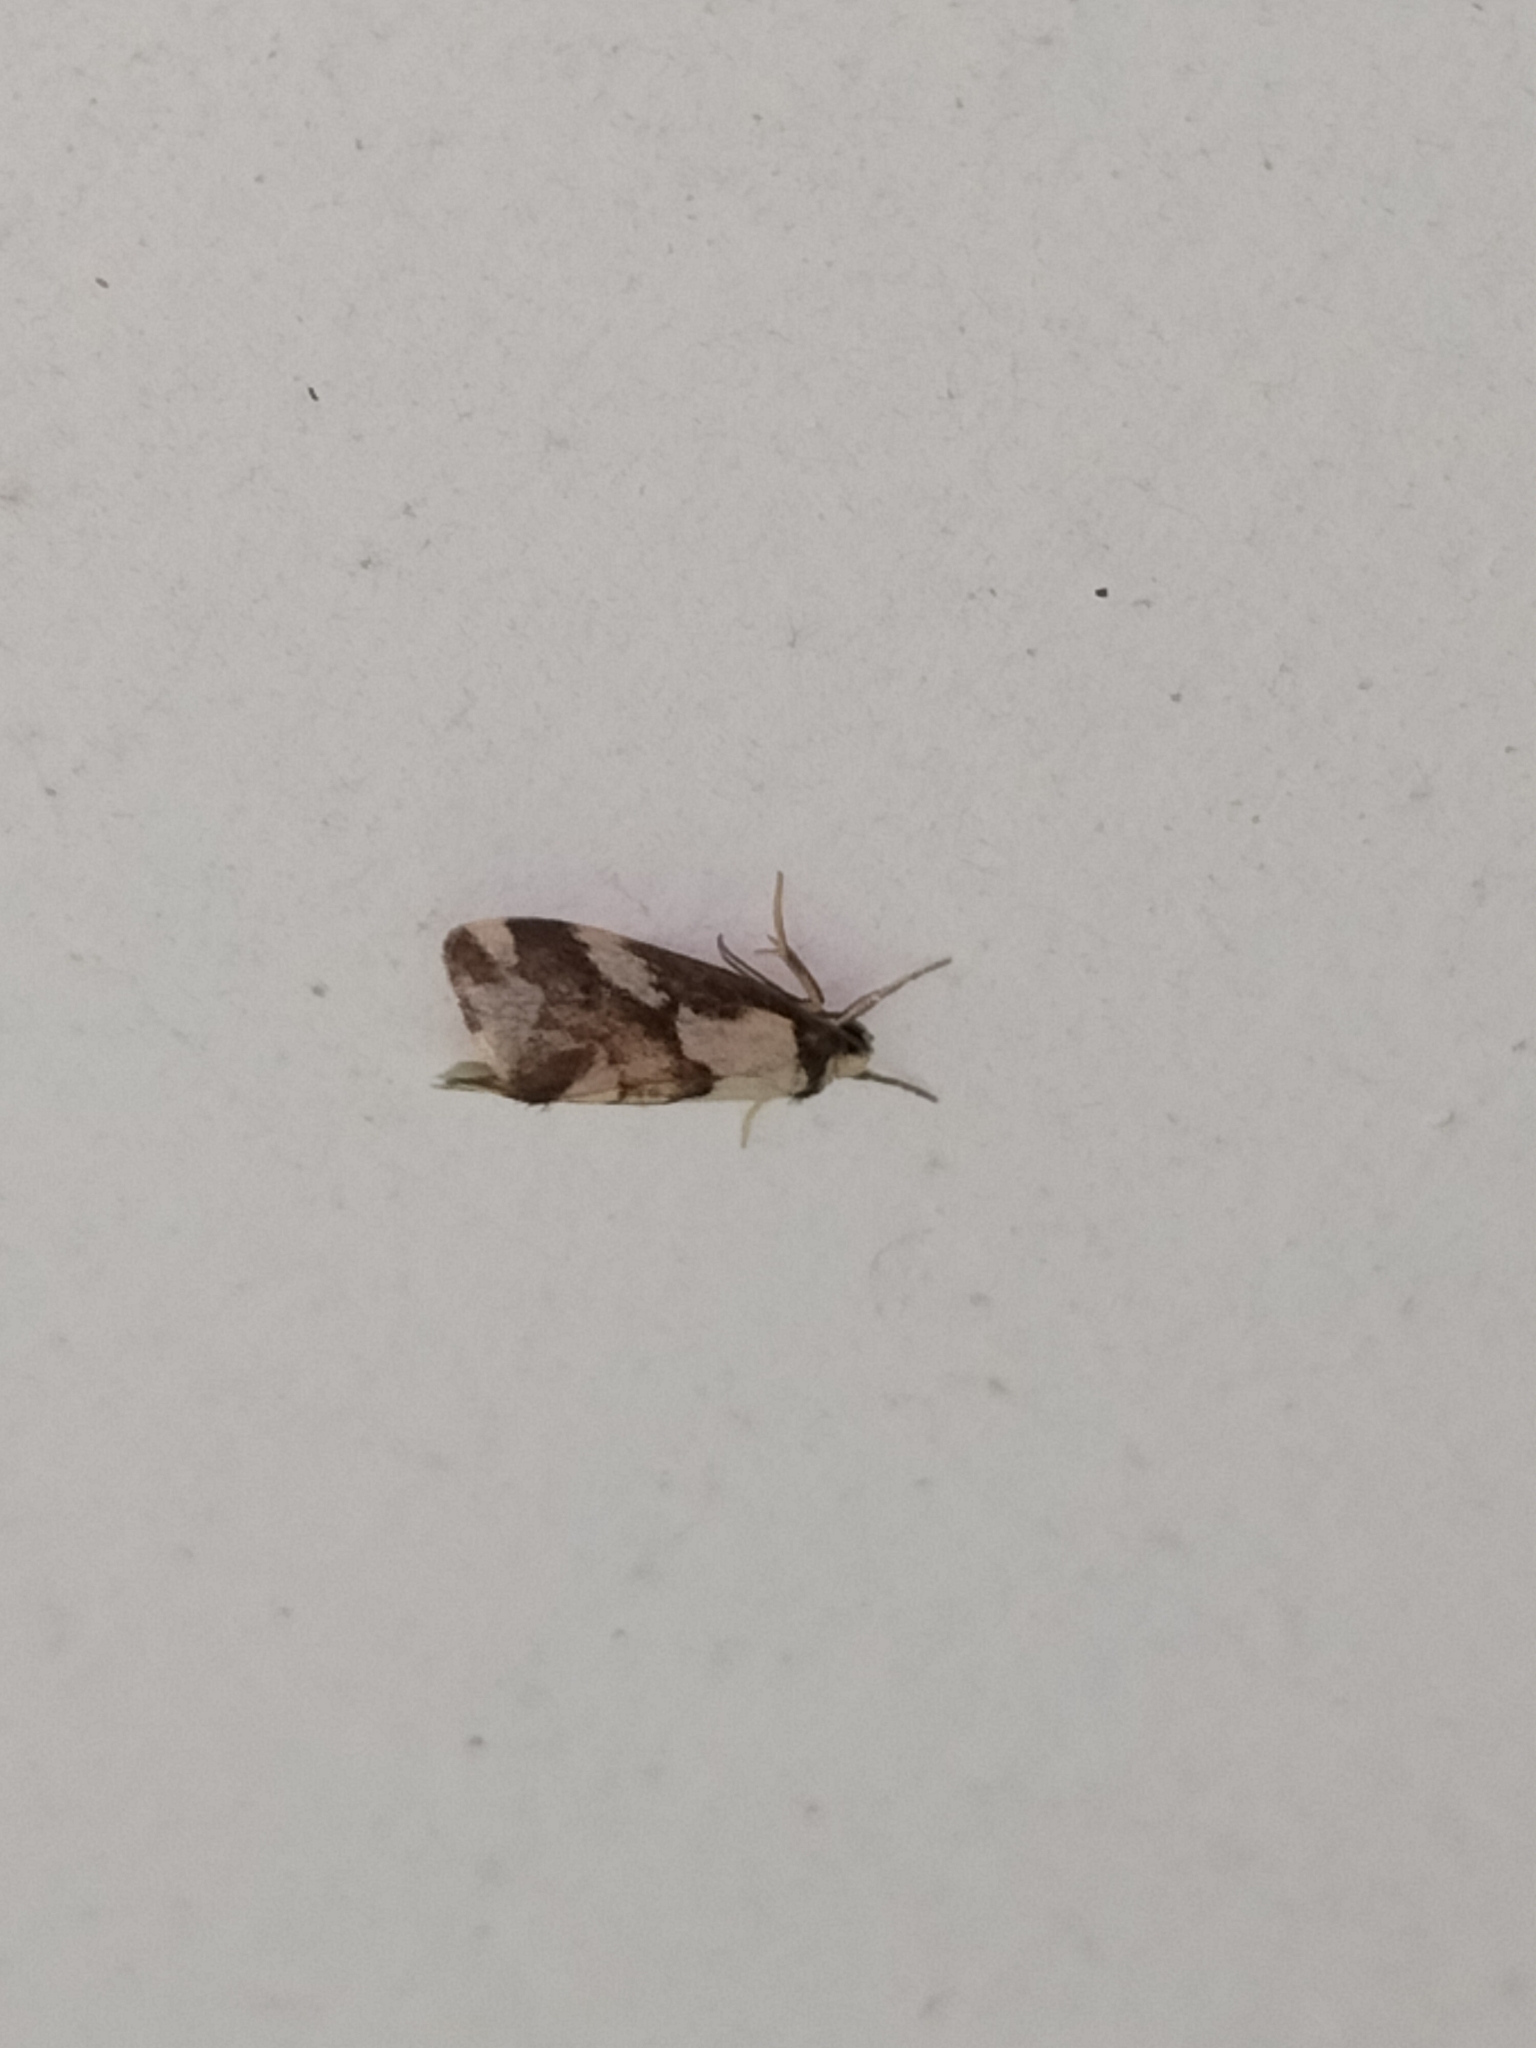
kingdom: Animalia
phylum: Arthropoda
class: Insecta
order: Lepidoptera
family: Erebidae
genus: Philenora
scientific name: Philenora chionastis
